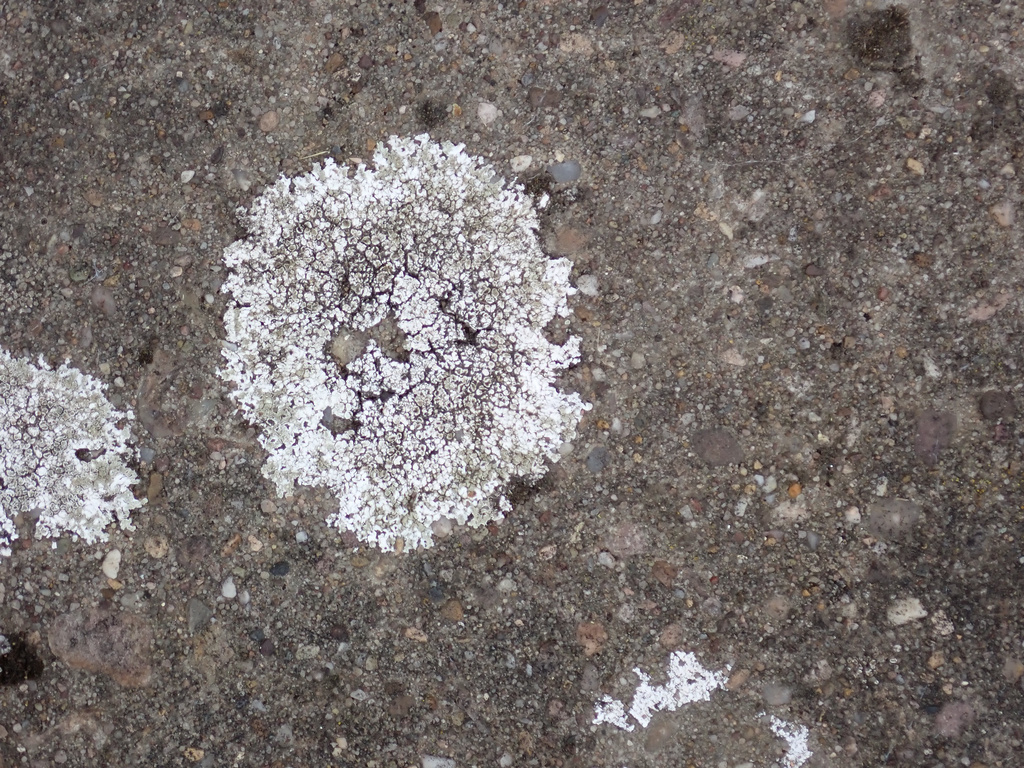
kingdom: Fungi
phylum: Ascomycota
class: Lecanoromycetes
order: Lecanorales
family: Lecanoraceae
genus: Protoparmeliopsis
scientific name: Protoparmeliopsis muralis
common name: Stonewall rim lichen
